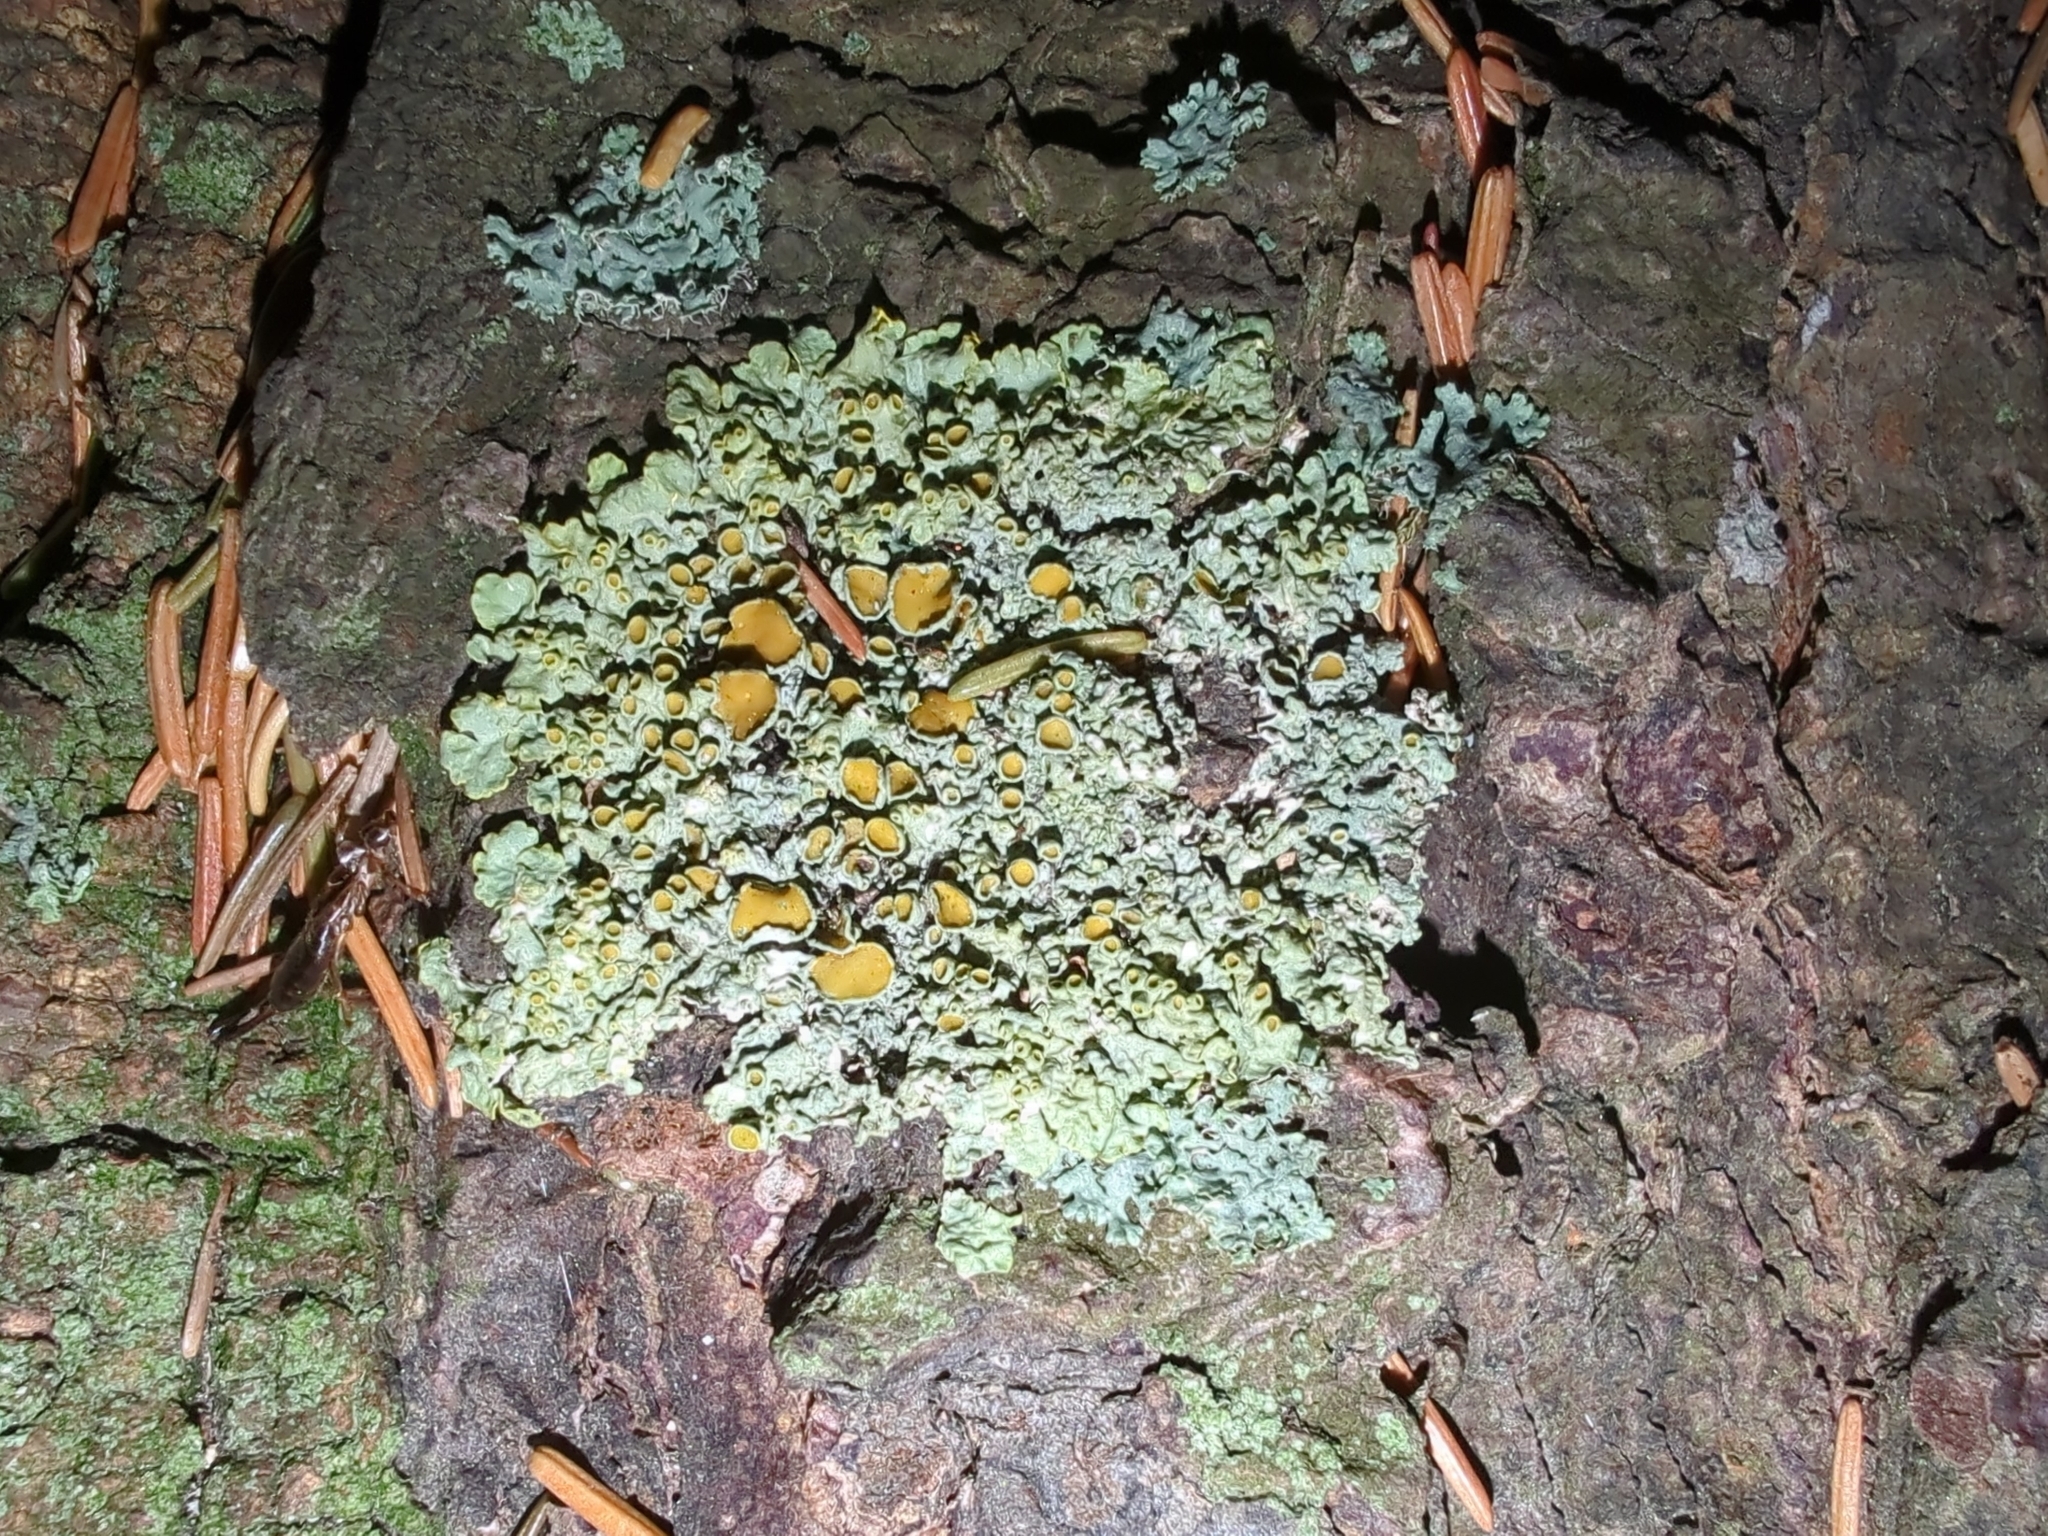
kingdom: Fungi
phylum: Ascomycota
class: Lecanoromycetes
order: Teloschistales
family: Teloschistaceae
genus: Xanthoria
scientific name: Xanthoria parietina
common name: Common orange lichen
